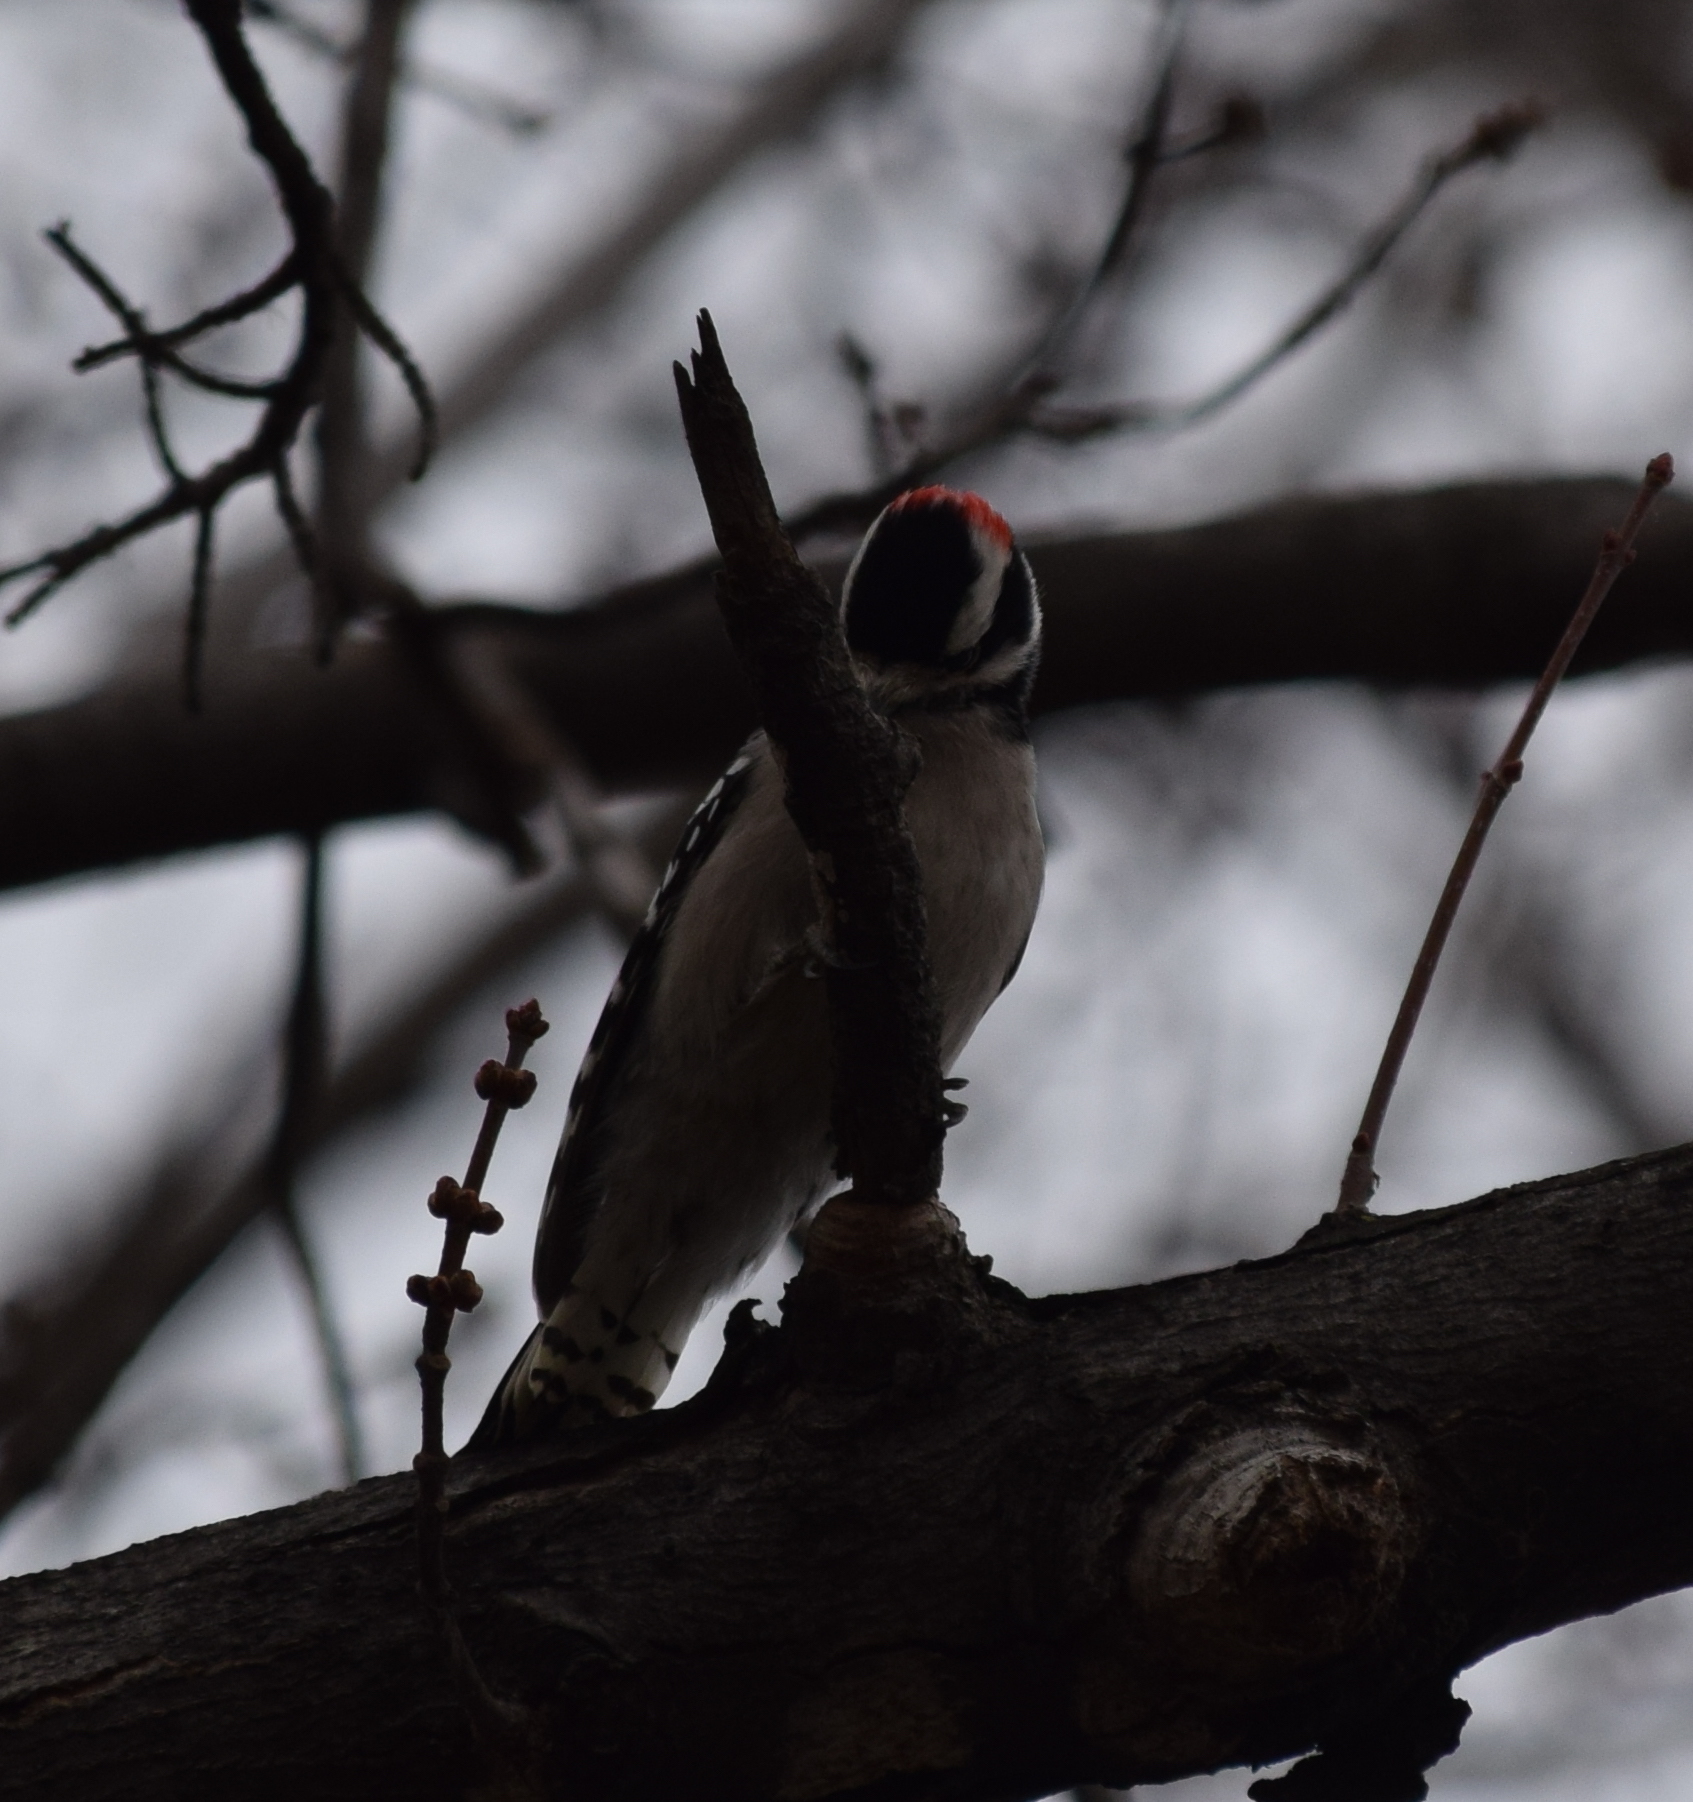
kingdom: Animalia
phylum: Chordata
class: Aves
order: Piciformes
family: Picidae
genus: Dryobates
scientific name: Dryobates pubescens
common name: Downy woodpecker
